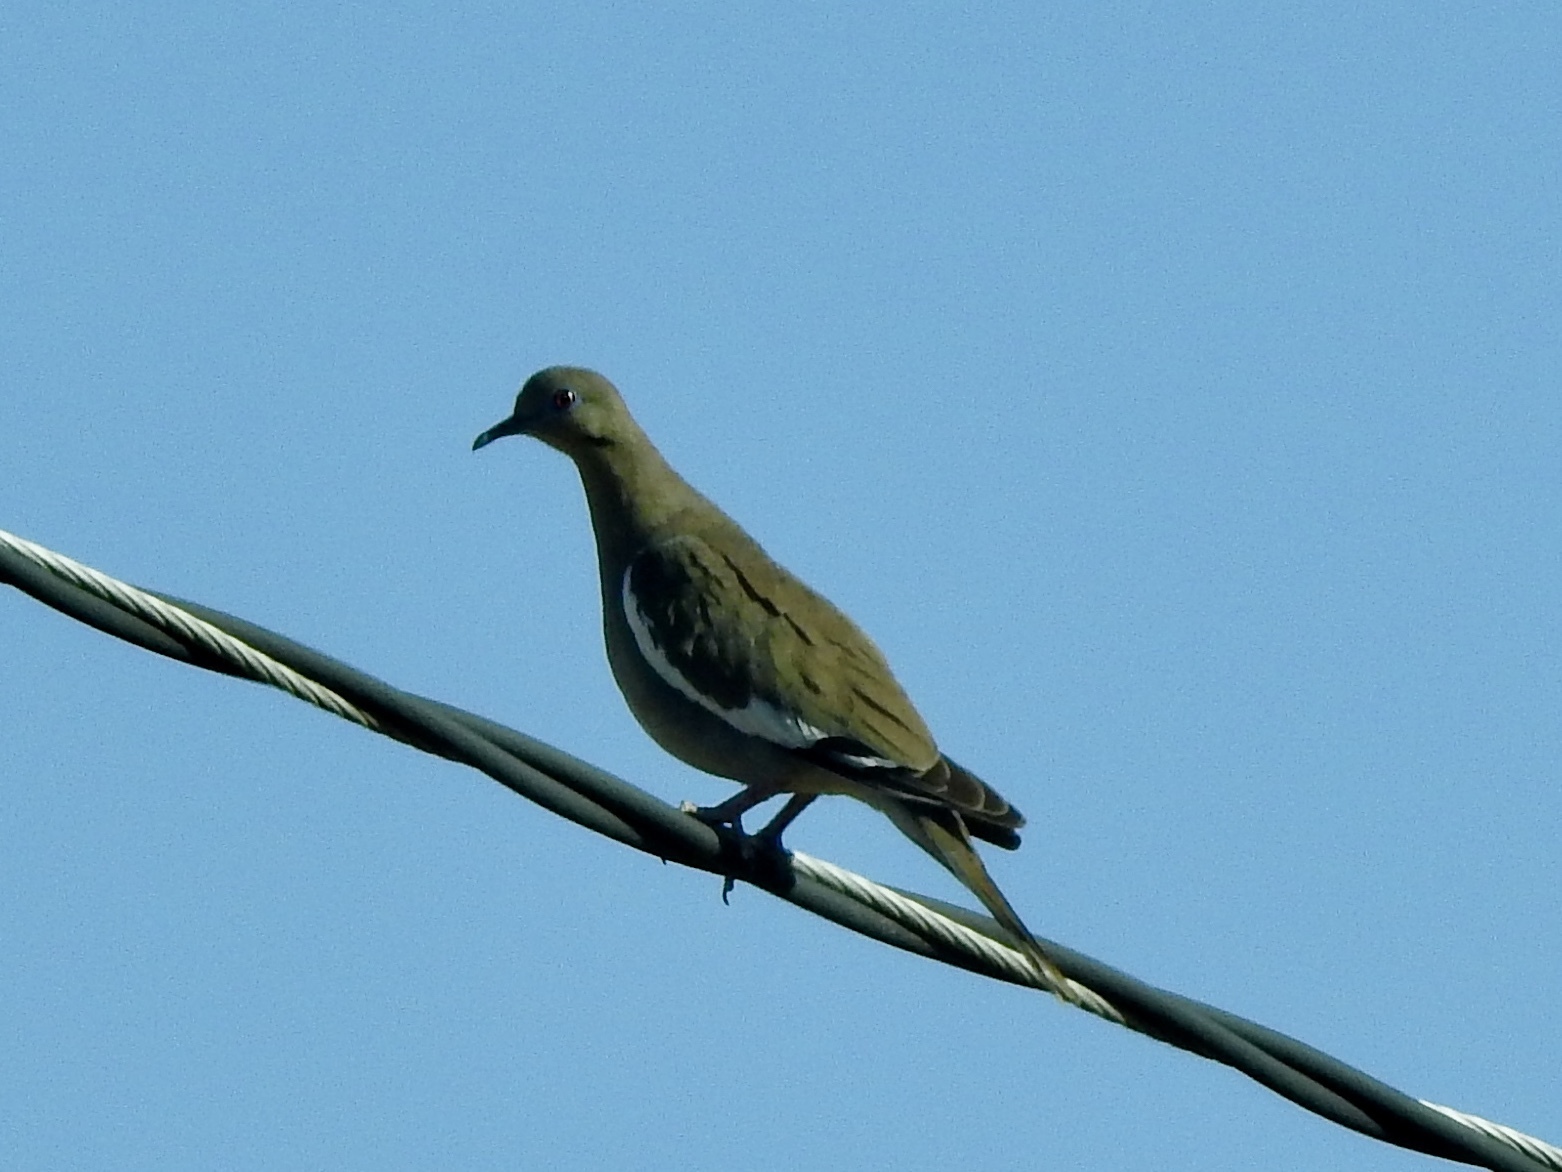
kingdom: Animalia
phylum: Chordata
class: Aves
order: Columbiformes
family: Columbidae
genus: Zenaida
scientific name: Zenaida asiatica
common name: White-winged dove
